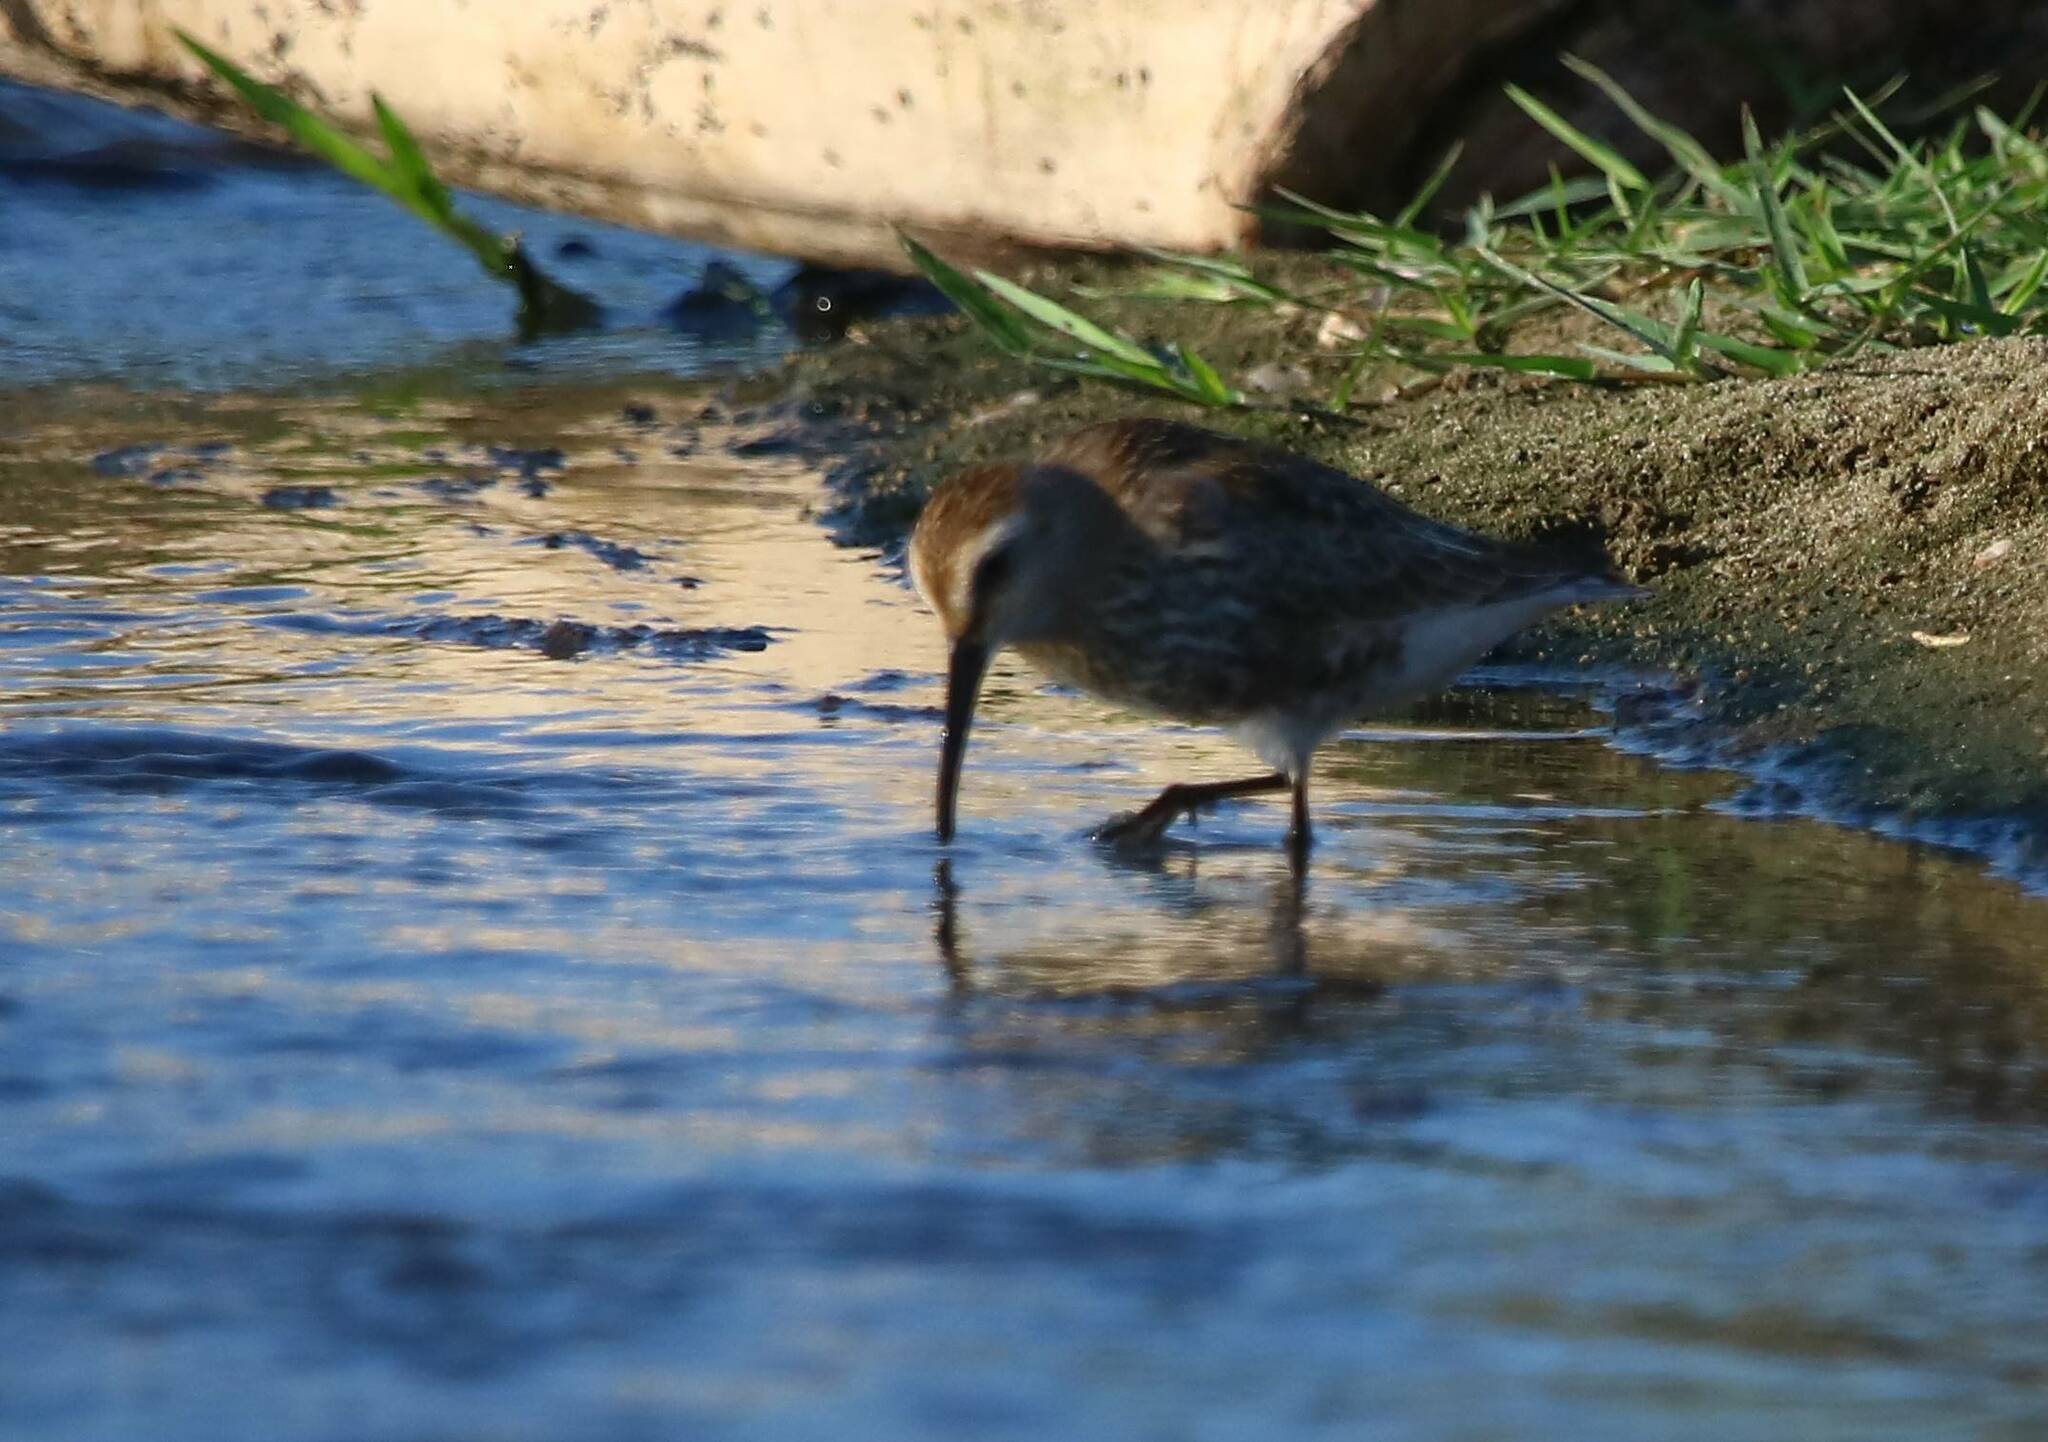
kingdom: Animalia
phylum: Chordata
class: Aves
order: Charadriiformes
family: Scolopacidae
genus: Calidris
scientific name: Calidris alpina
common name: Dunlin
